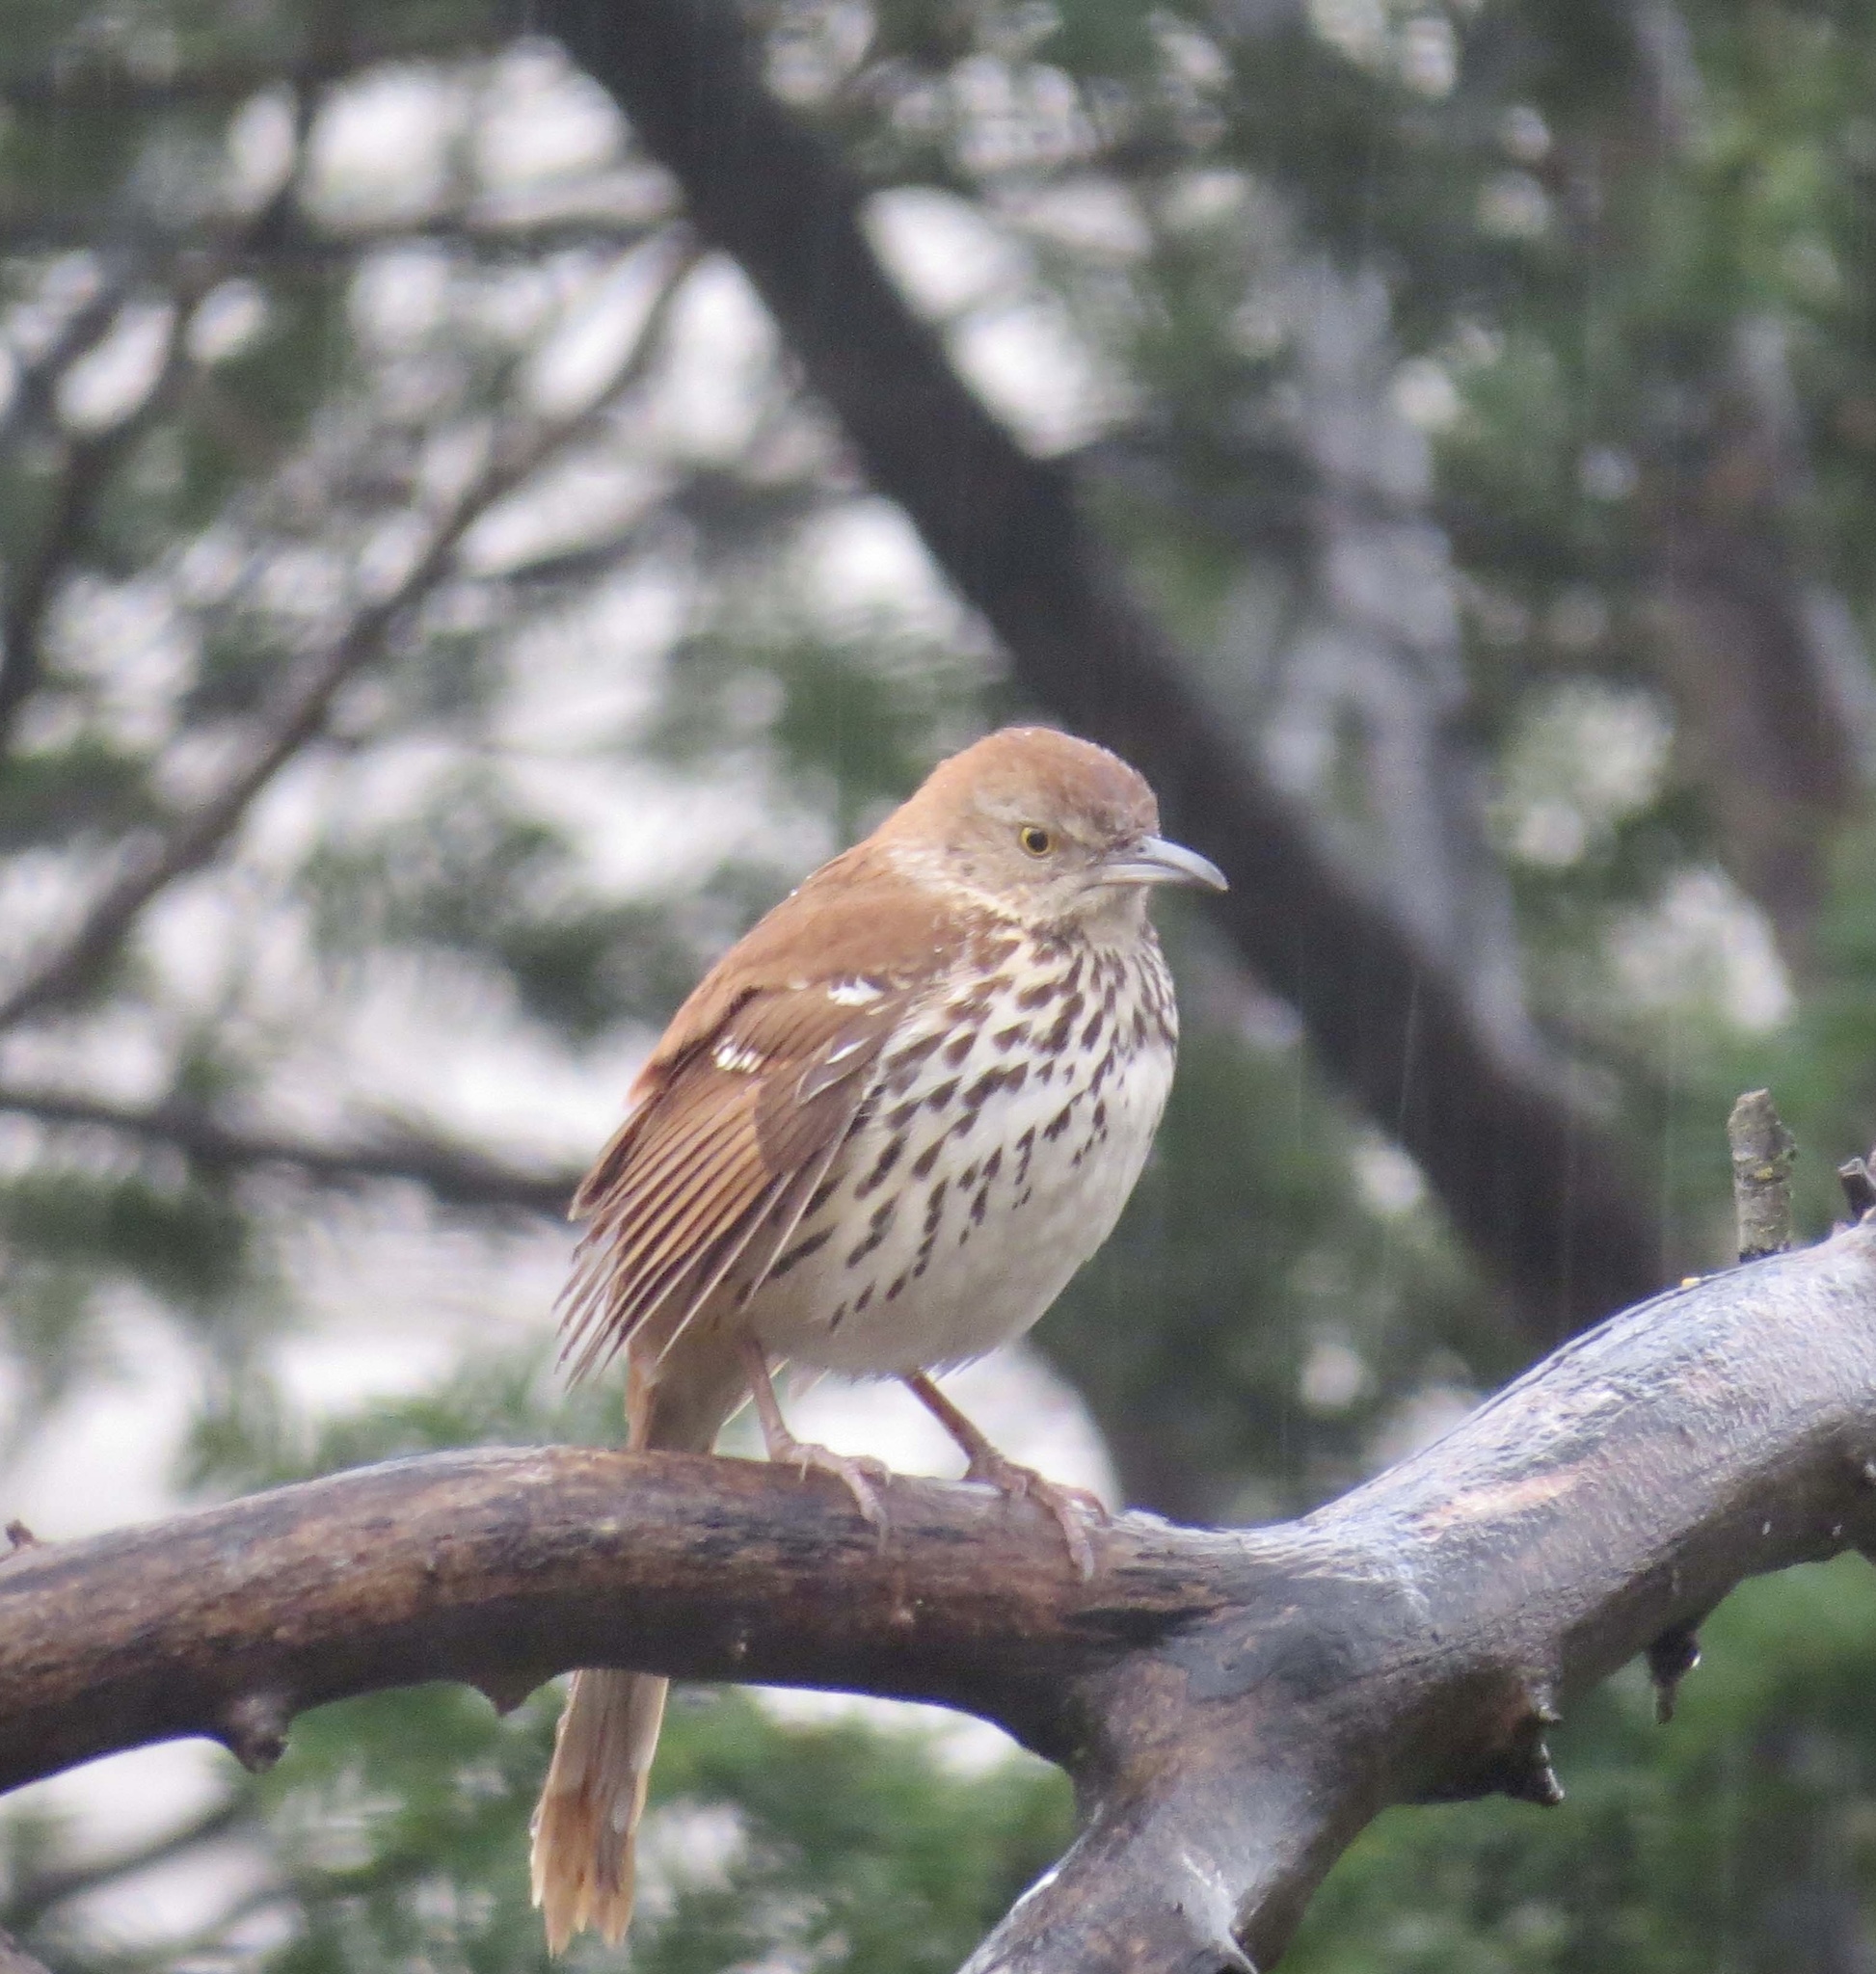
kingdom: Animalia
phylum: Chordata
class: Aves
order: Passeriformes
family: Mimidae
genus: Toxostoma
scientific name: Toxostoma rufum
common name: Brown thrasher
